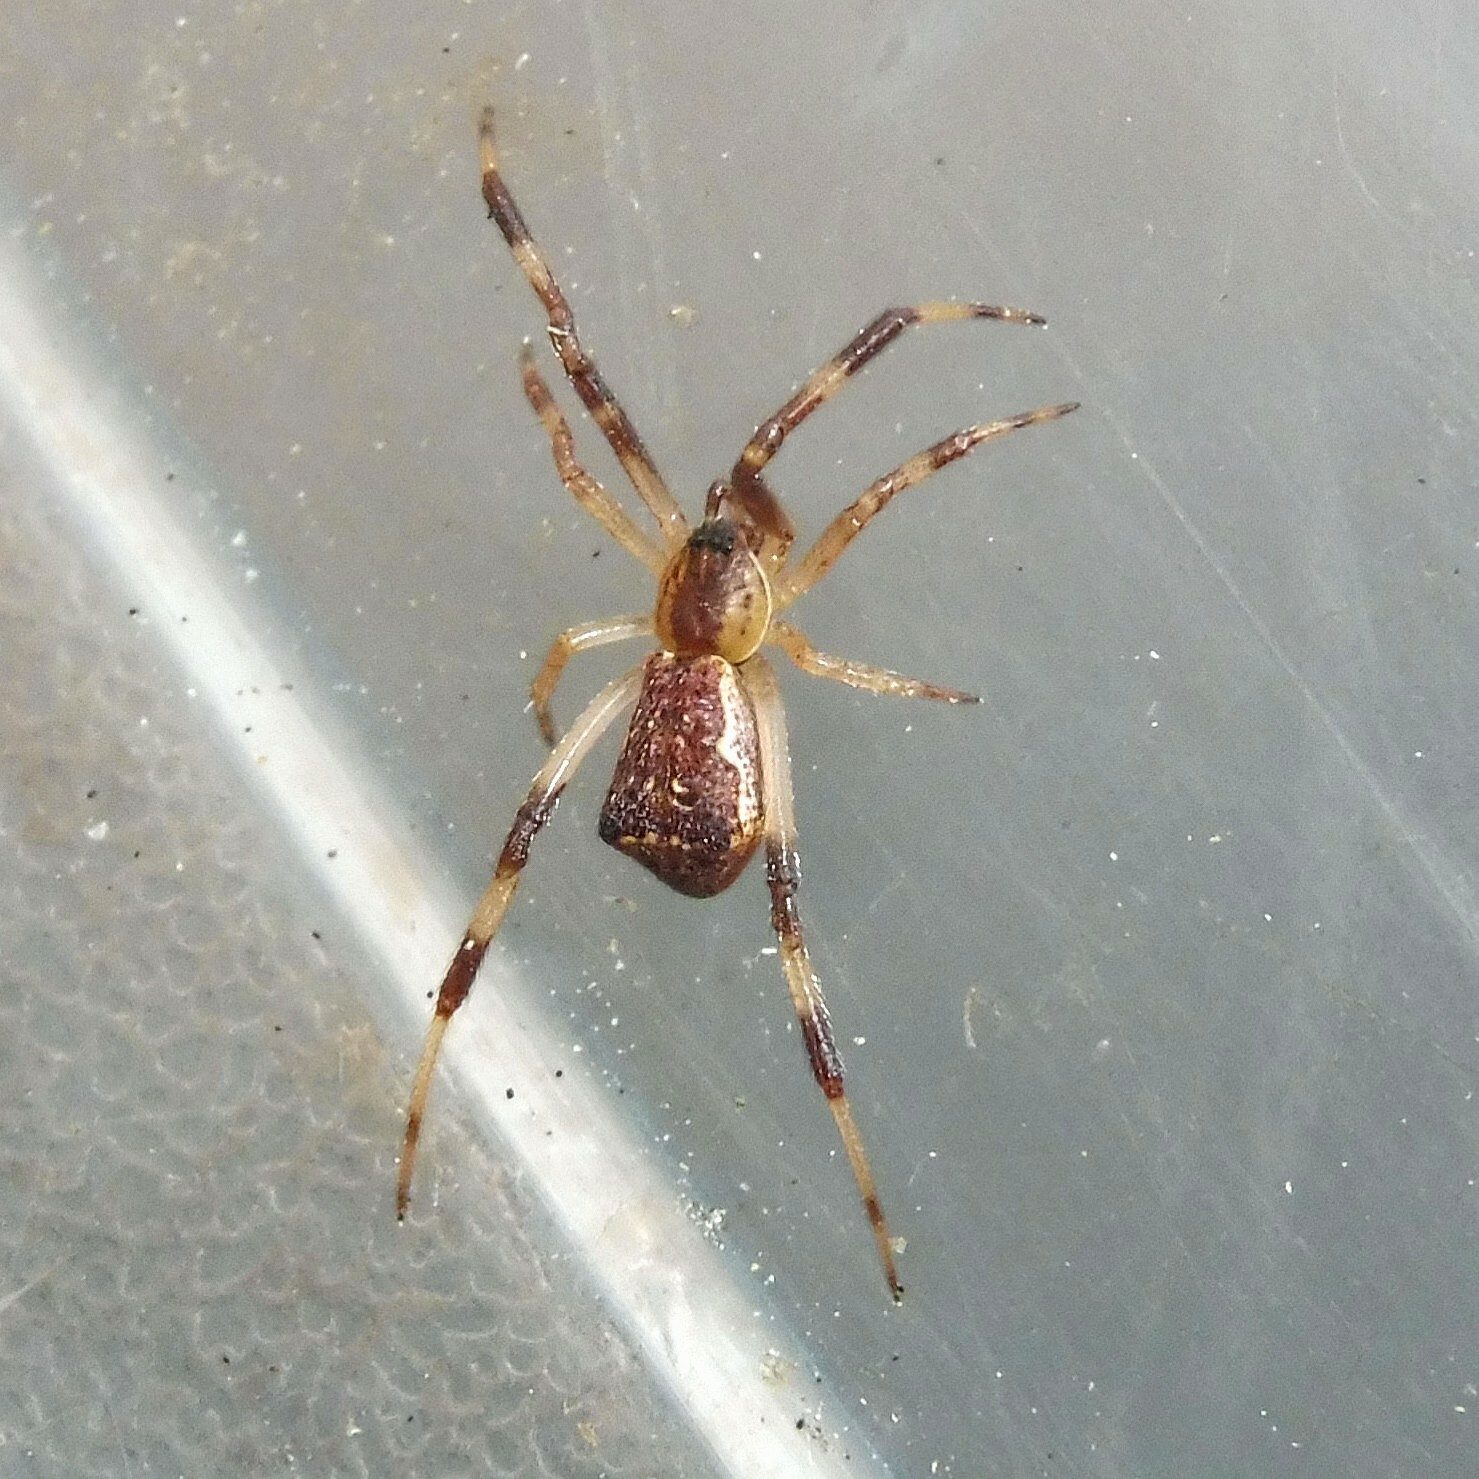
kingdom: Animalia
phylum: Arthropoda
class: Arachnida
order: Araneae
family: Theridiidae
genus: Episinus
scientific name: Episinus angulatus
